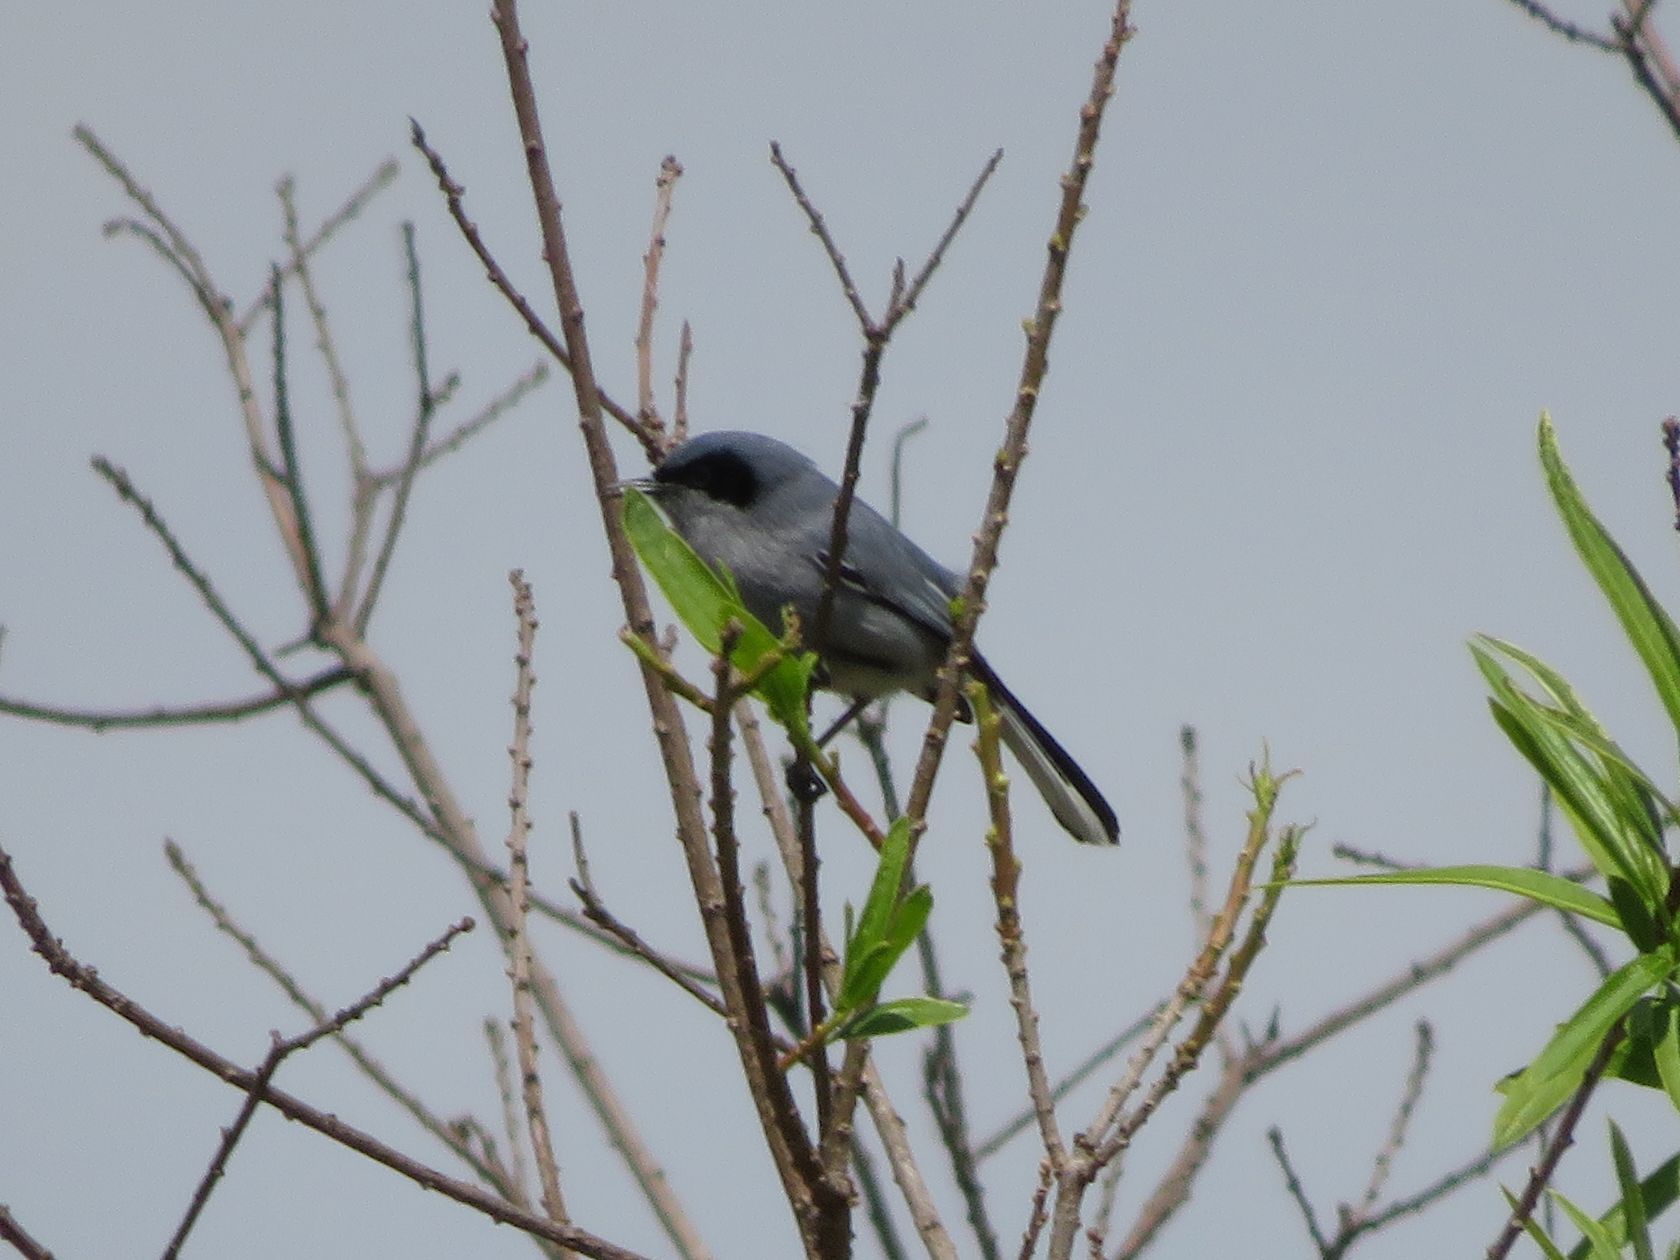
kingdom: Animalia
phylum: Chordata
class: Aves
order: Passeriformes
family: Polioptilidae
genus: Polioptila
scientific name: Polioptila dumicola
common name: Masked gnatcatcher
